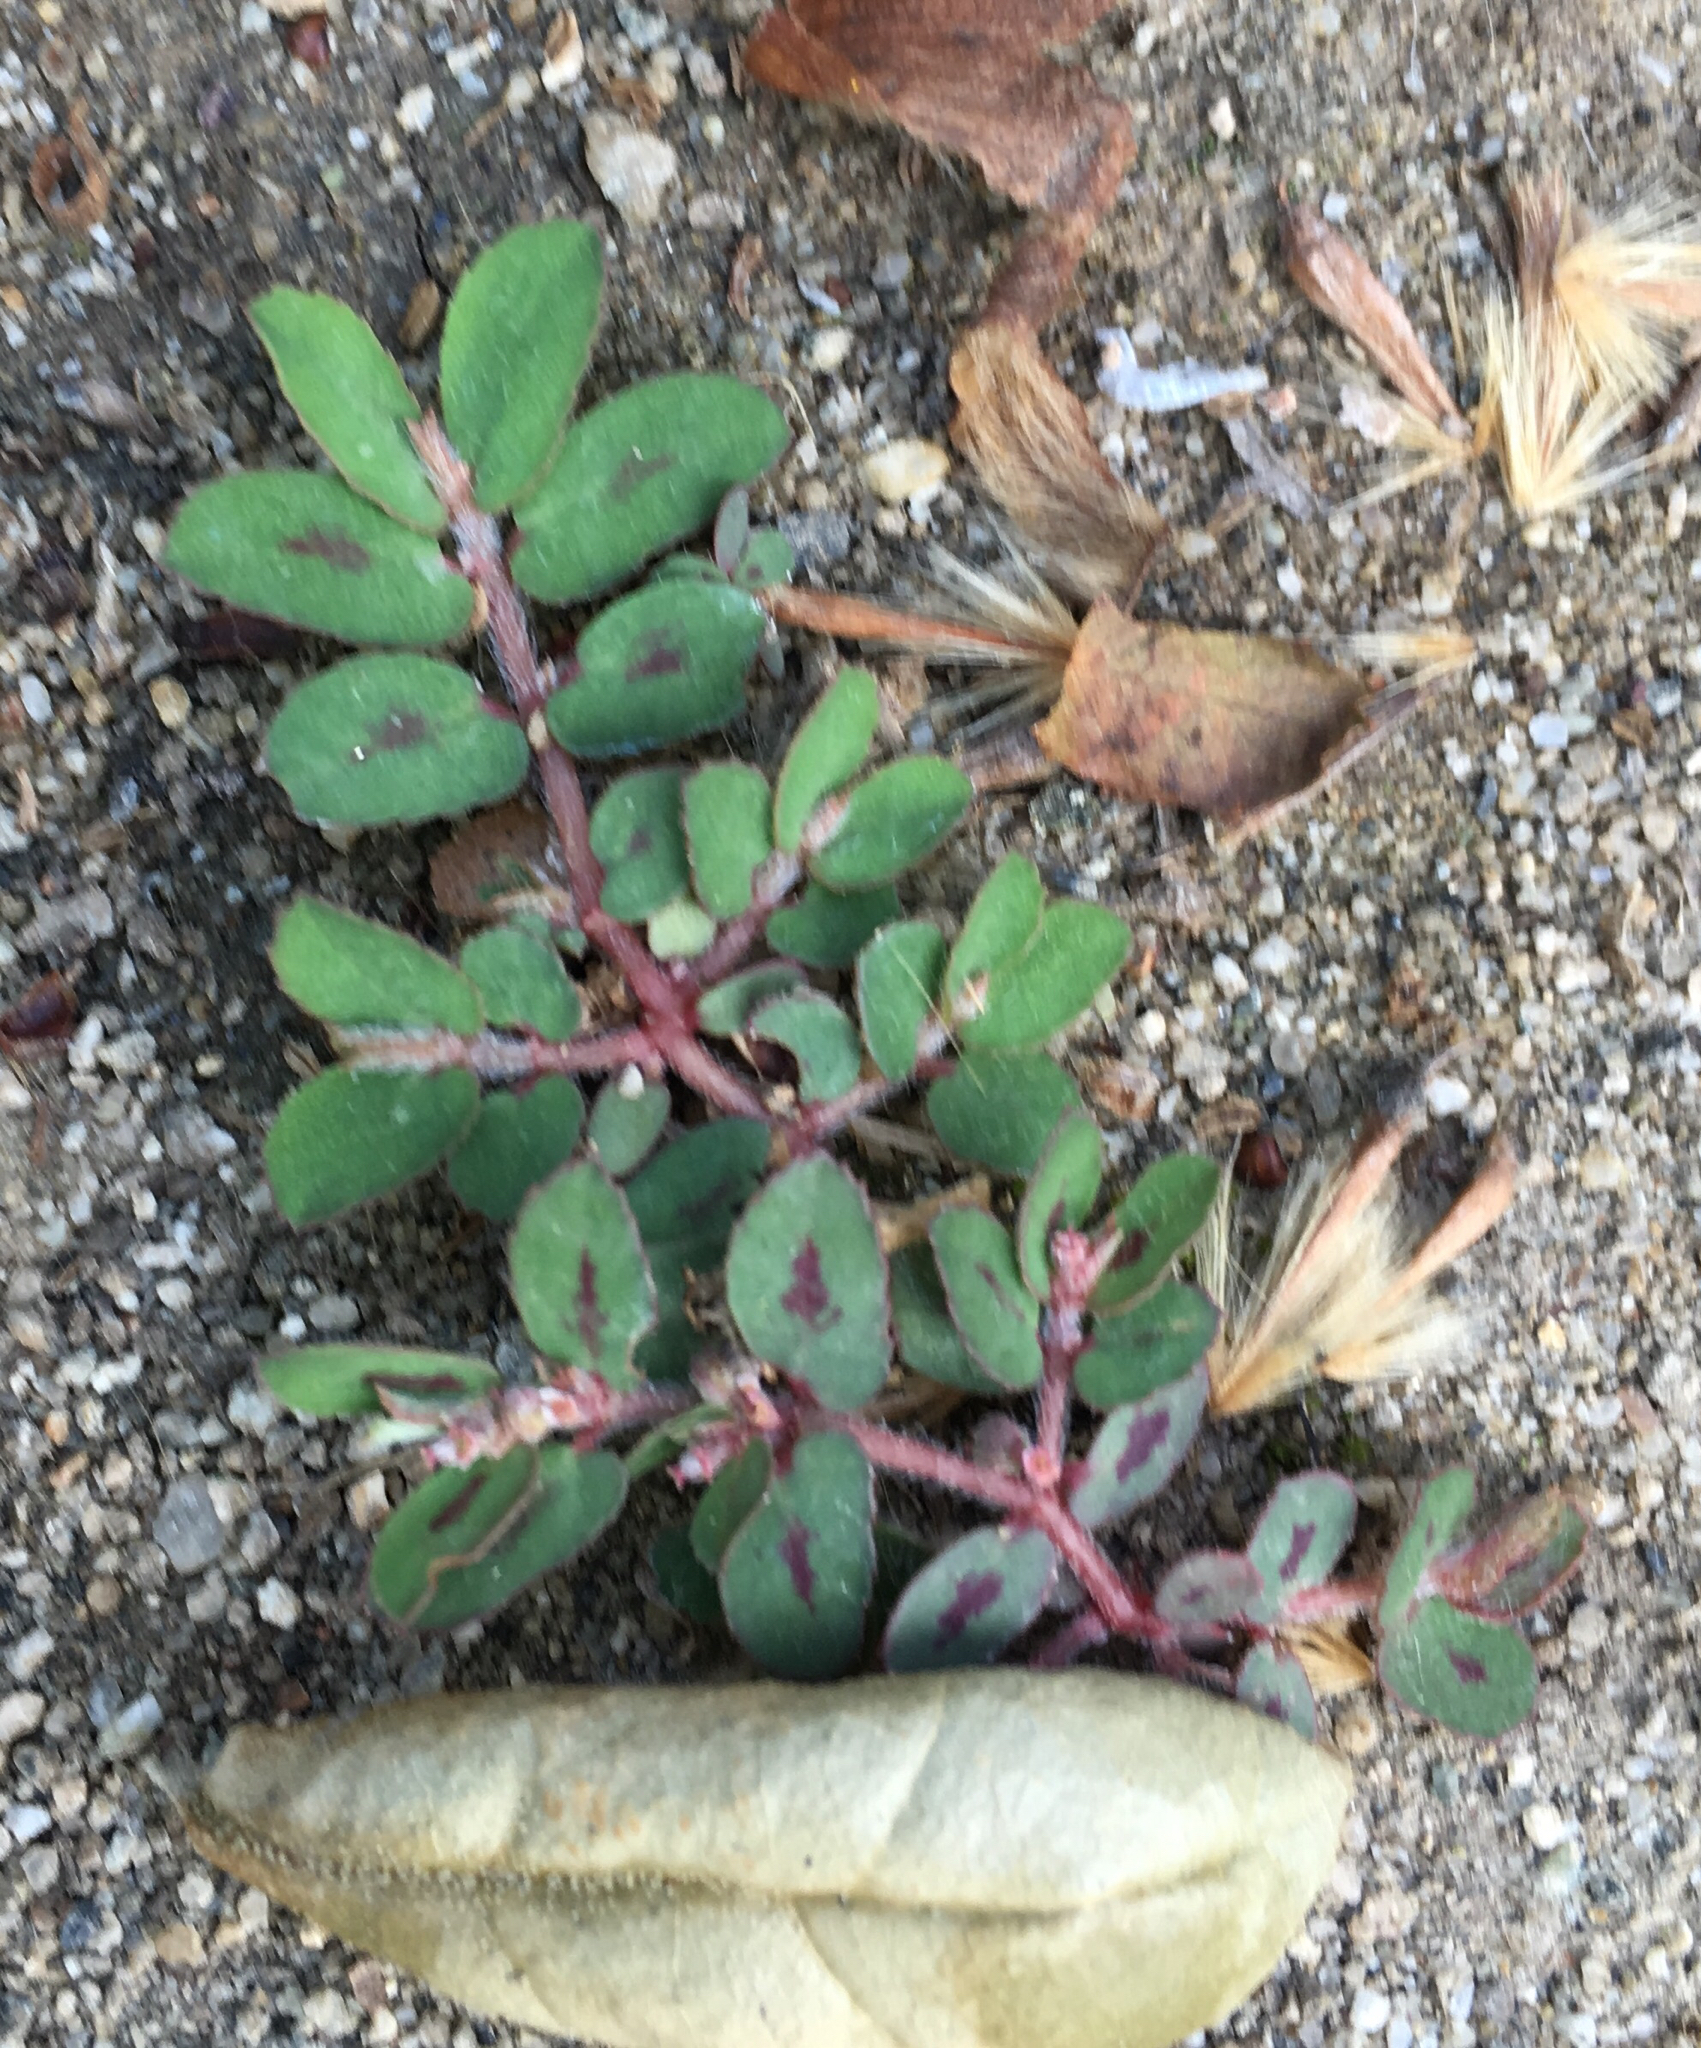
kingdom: Plantae
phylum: Tracheophyta
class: Magnoliopsida
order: Malpighiales
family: Euphorbiaceae
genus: Euphorbia
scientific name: Euphorbia maculata
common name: Spotted spurge
